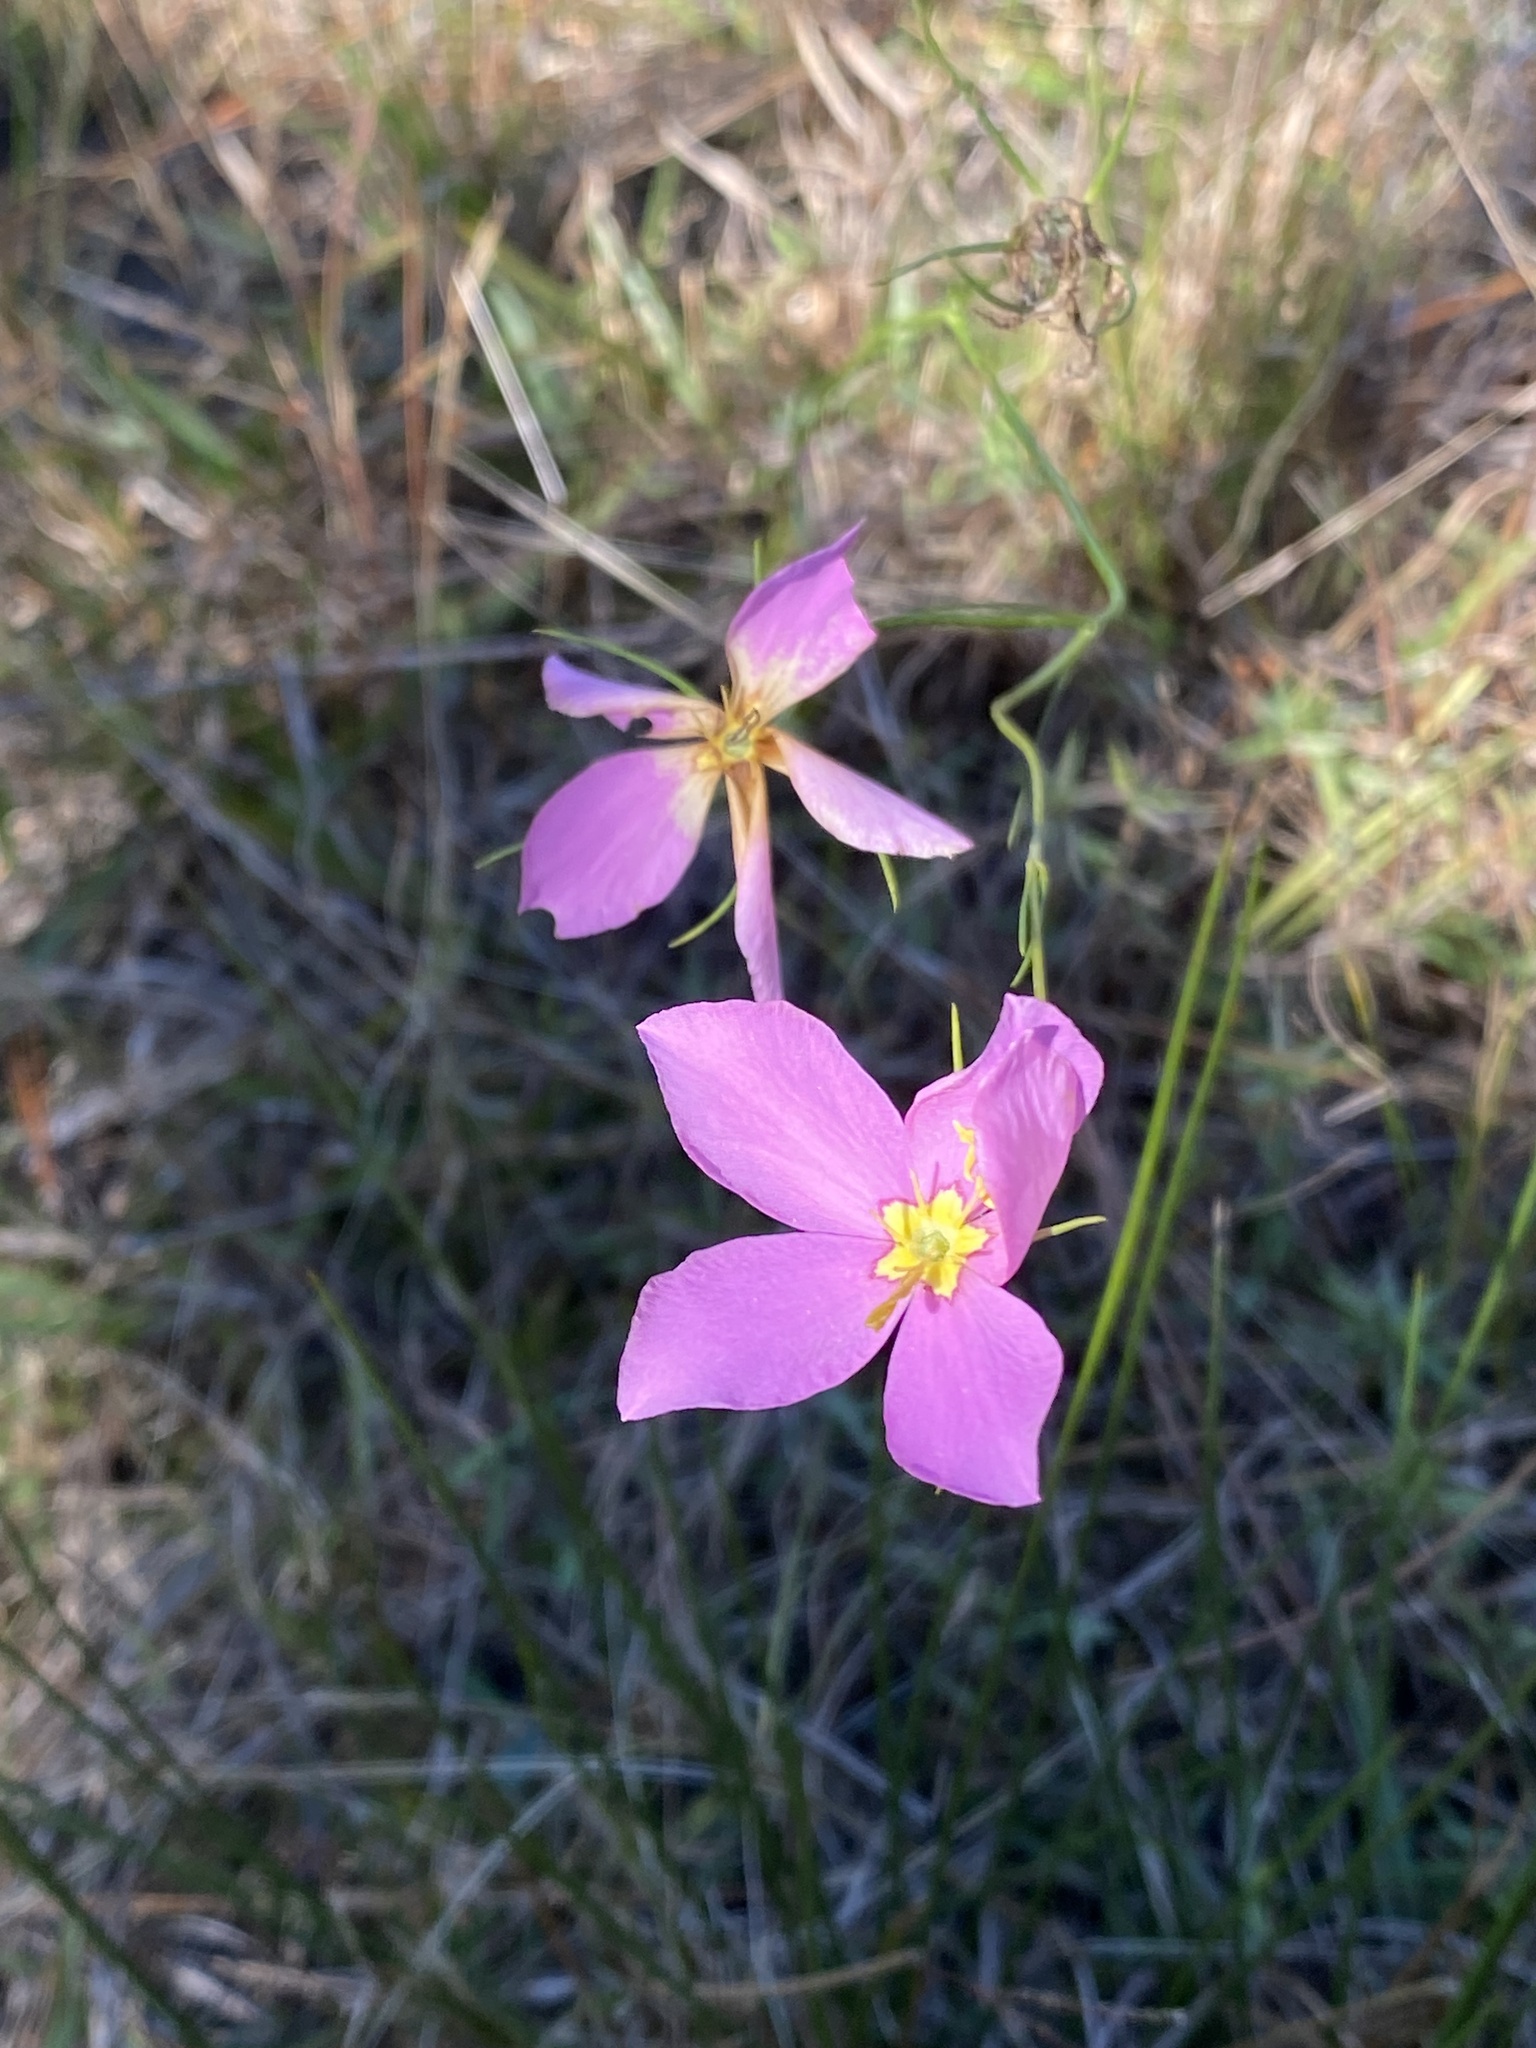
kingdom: Plantae
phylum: Tracheophyta
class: Magnoliopsida
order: Gentianales
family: Gentianaceae
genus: Sabatia
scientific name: Sabatia grandiflora
